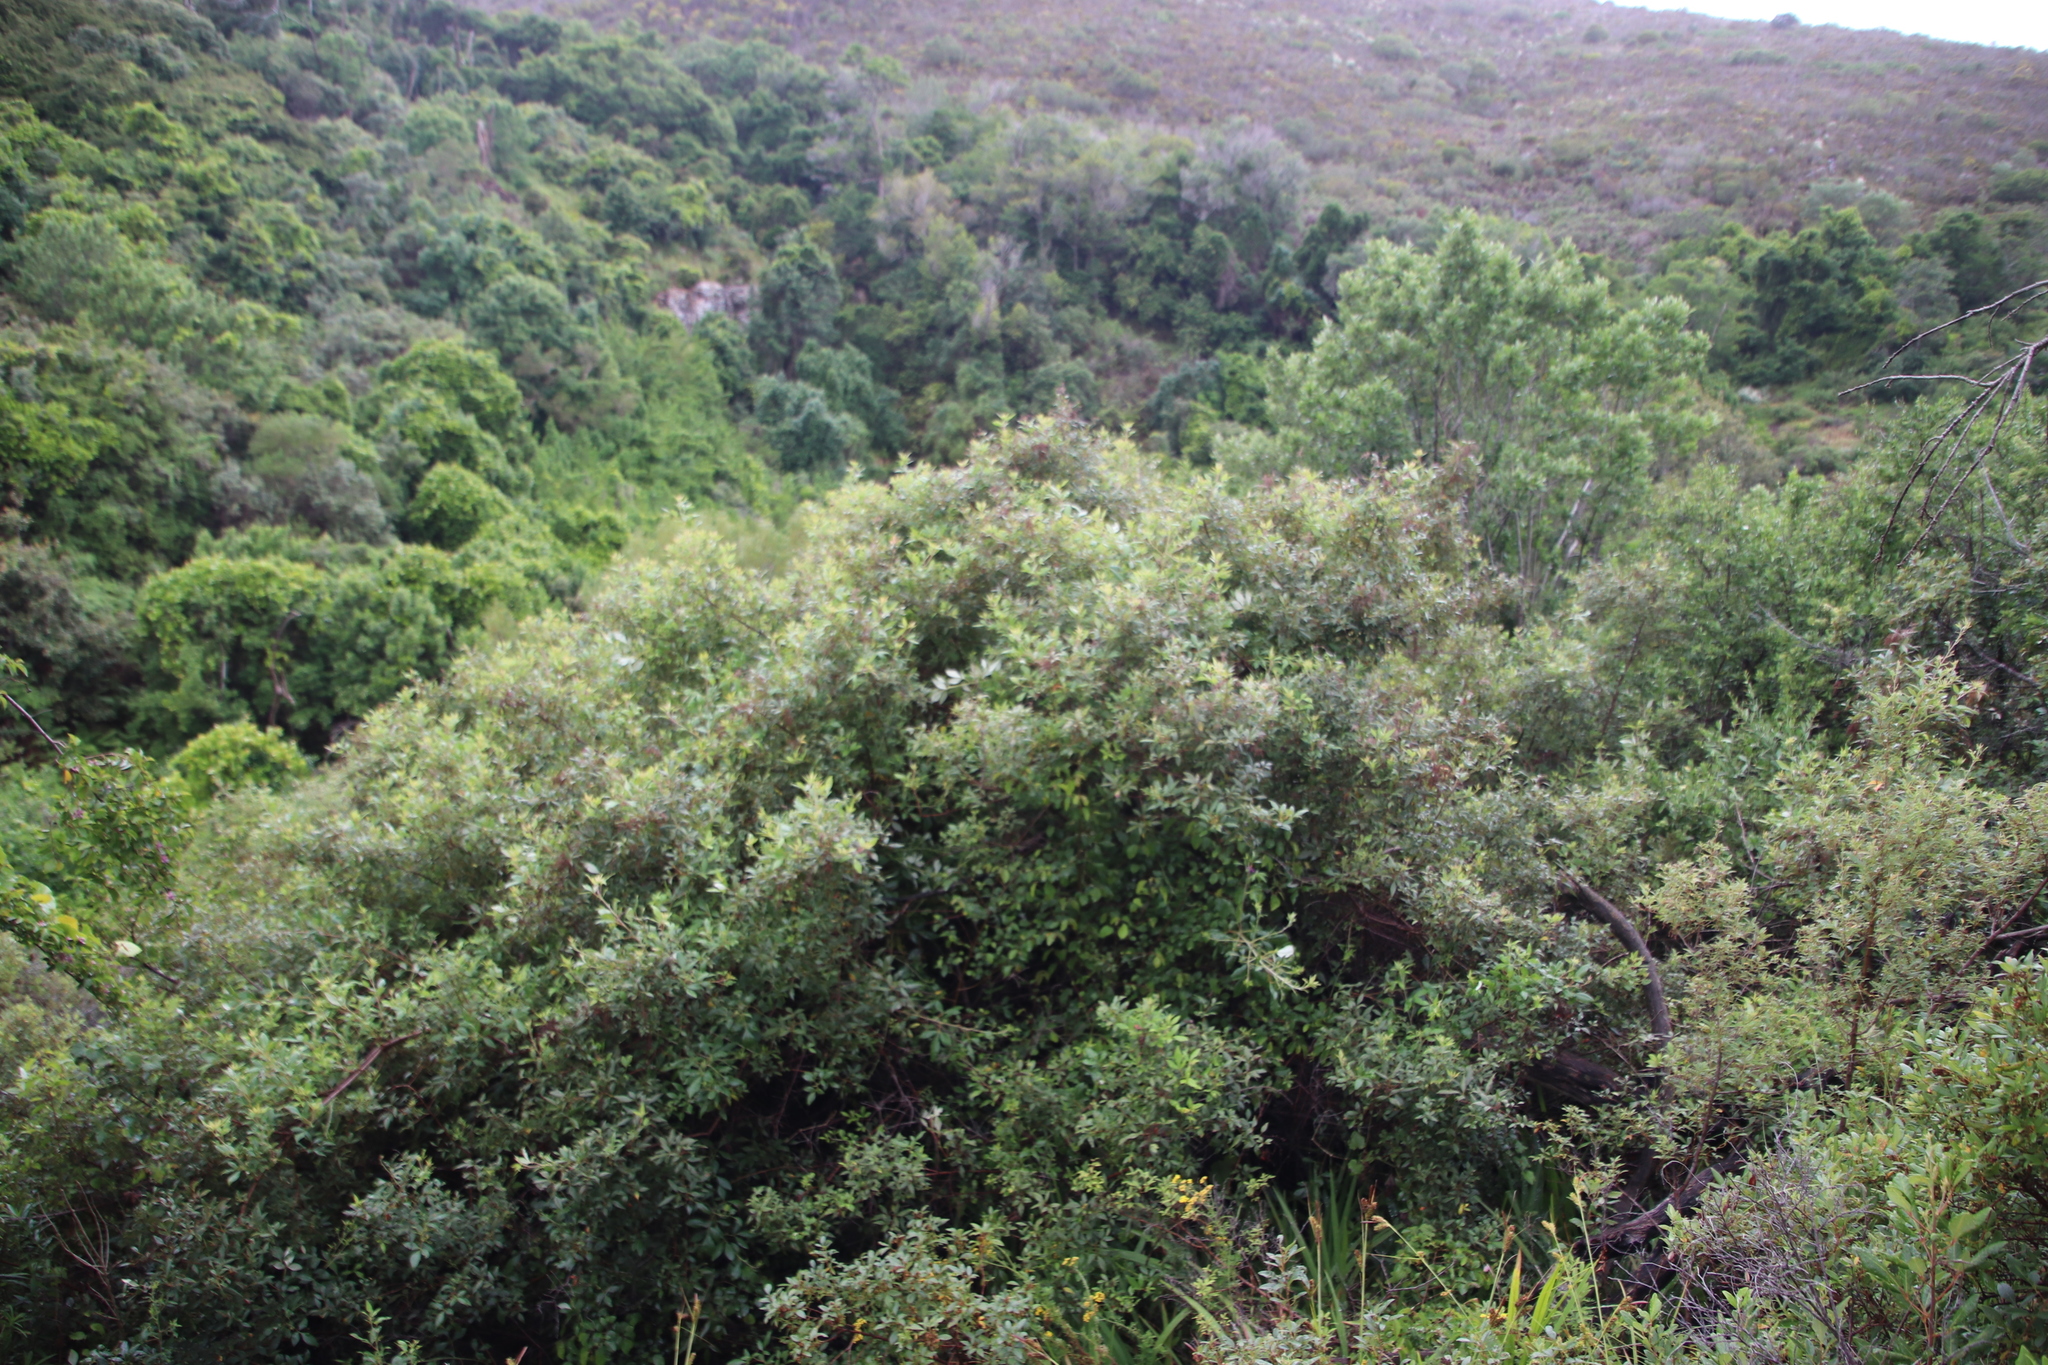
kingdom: Plantae
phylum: Tracheophyta
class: Magnoliopsida
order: Sapindales
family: Anacardiaceae
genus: Searsia
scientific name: Searsia tomentosa
